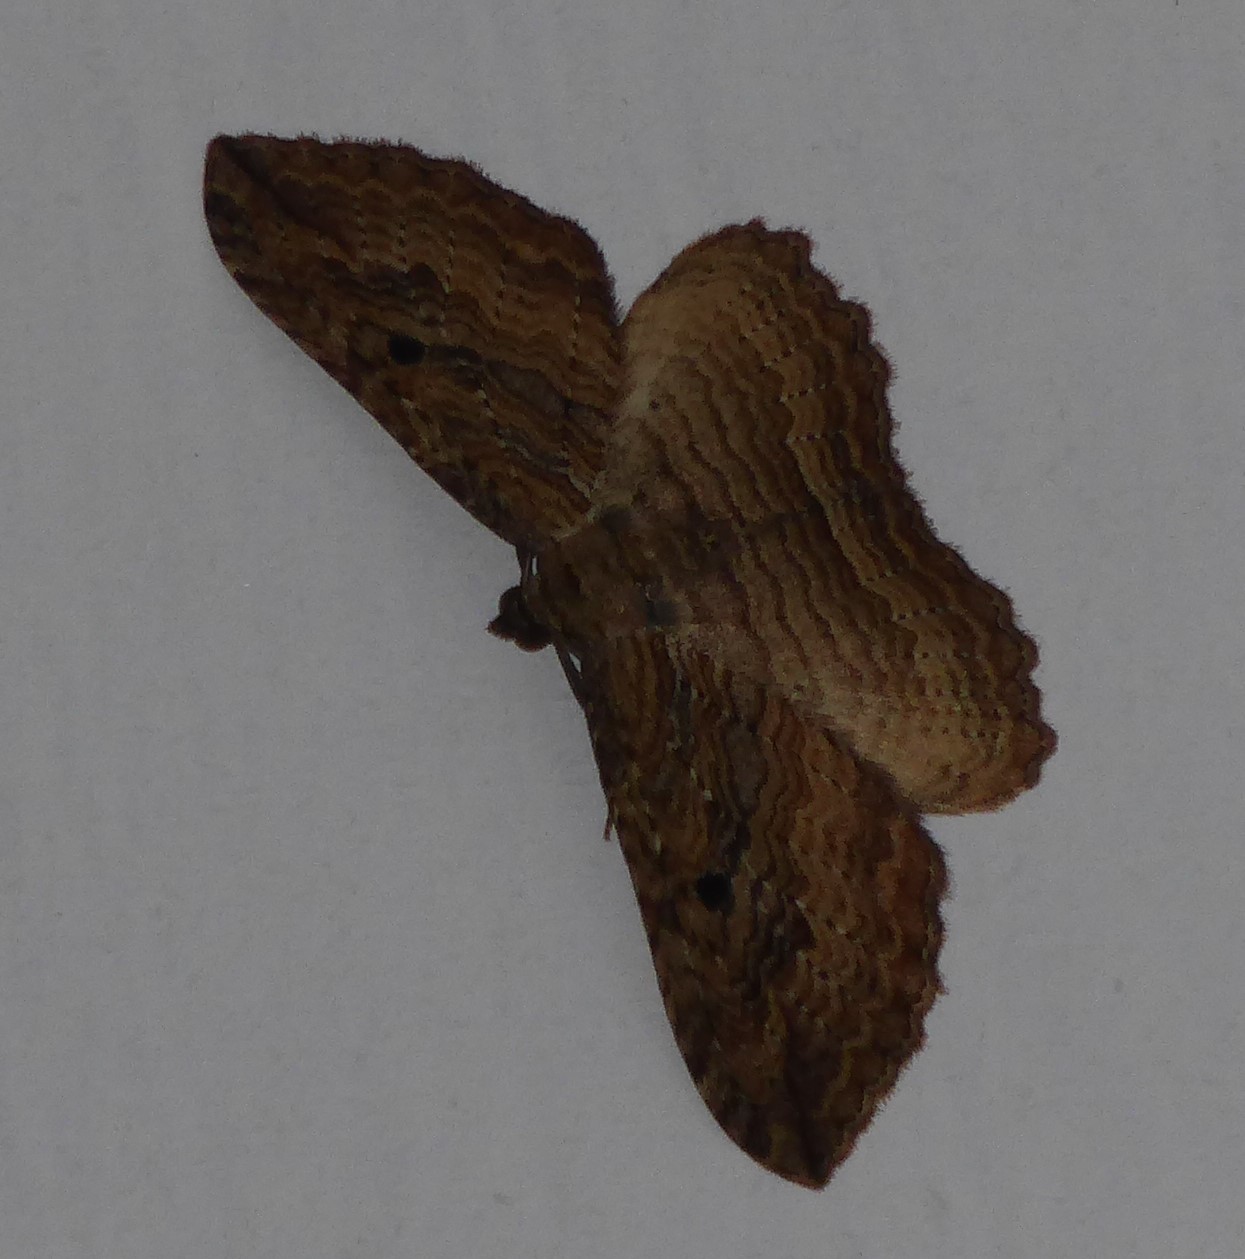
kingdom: Animalia
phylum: Arthropoda
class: Insecta
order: Lepidoptera
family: Geometridae
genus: Austrocidaria
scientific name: Austrocidaria bipartita
